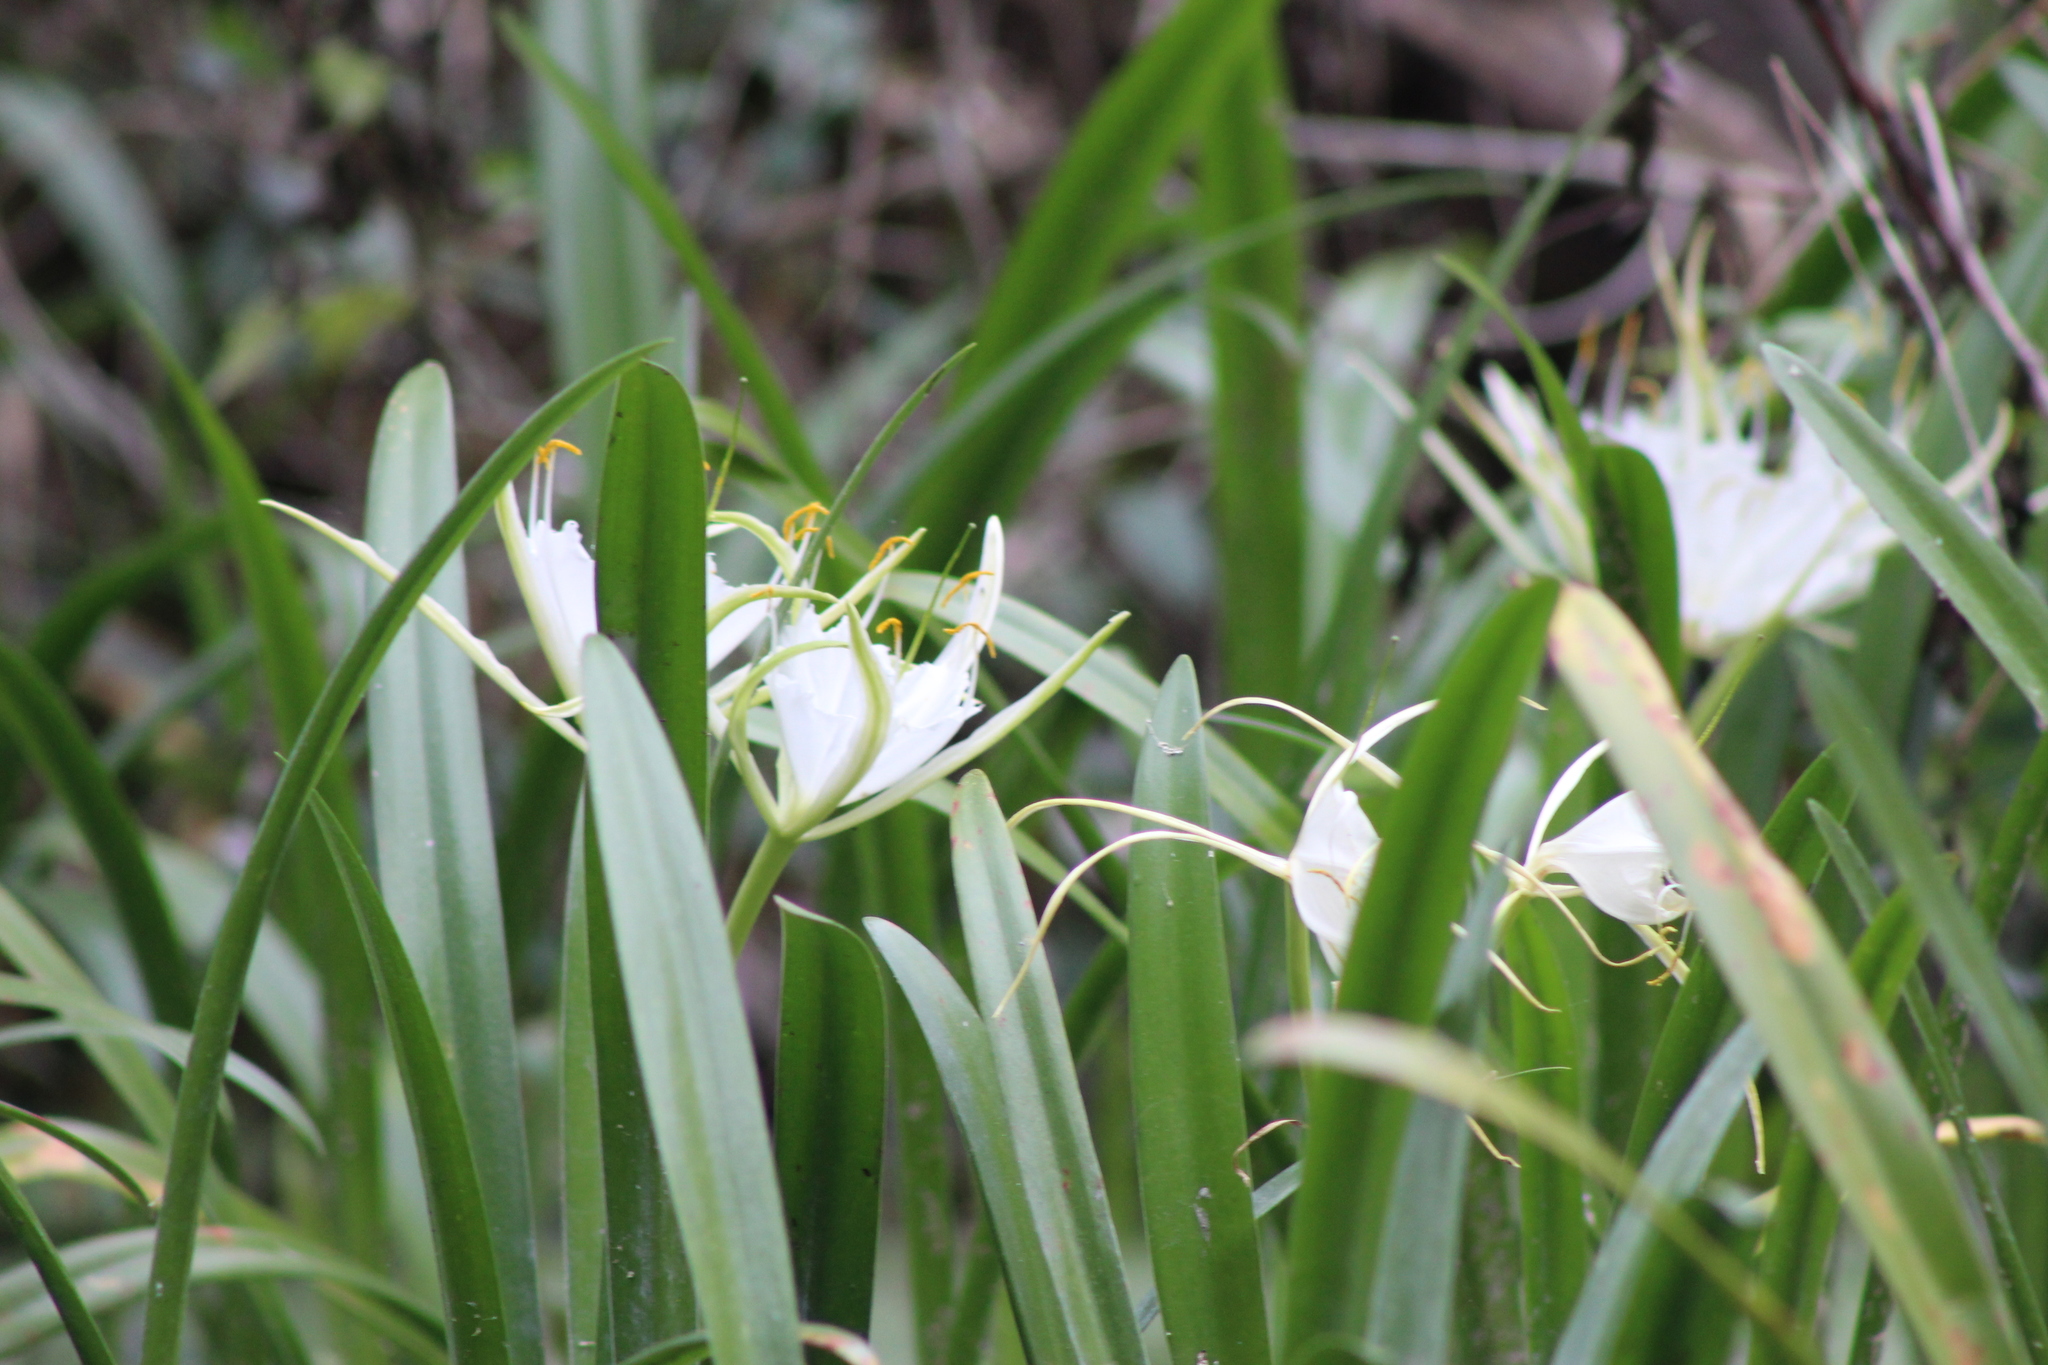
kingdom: Plantae
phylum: Tracheophyta
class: Liliopsida
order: Asparagales
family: Amaryllidaceae
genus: Hymenocallis
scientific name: Hymenocallis rotata
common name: Spring-run spider-lily
